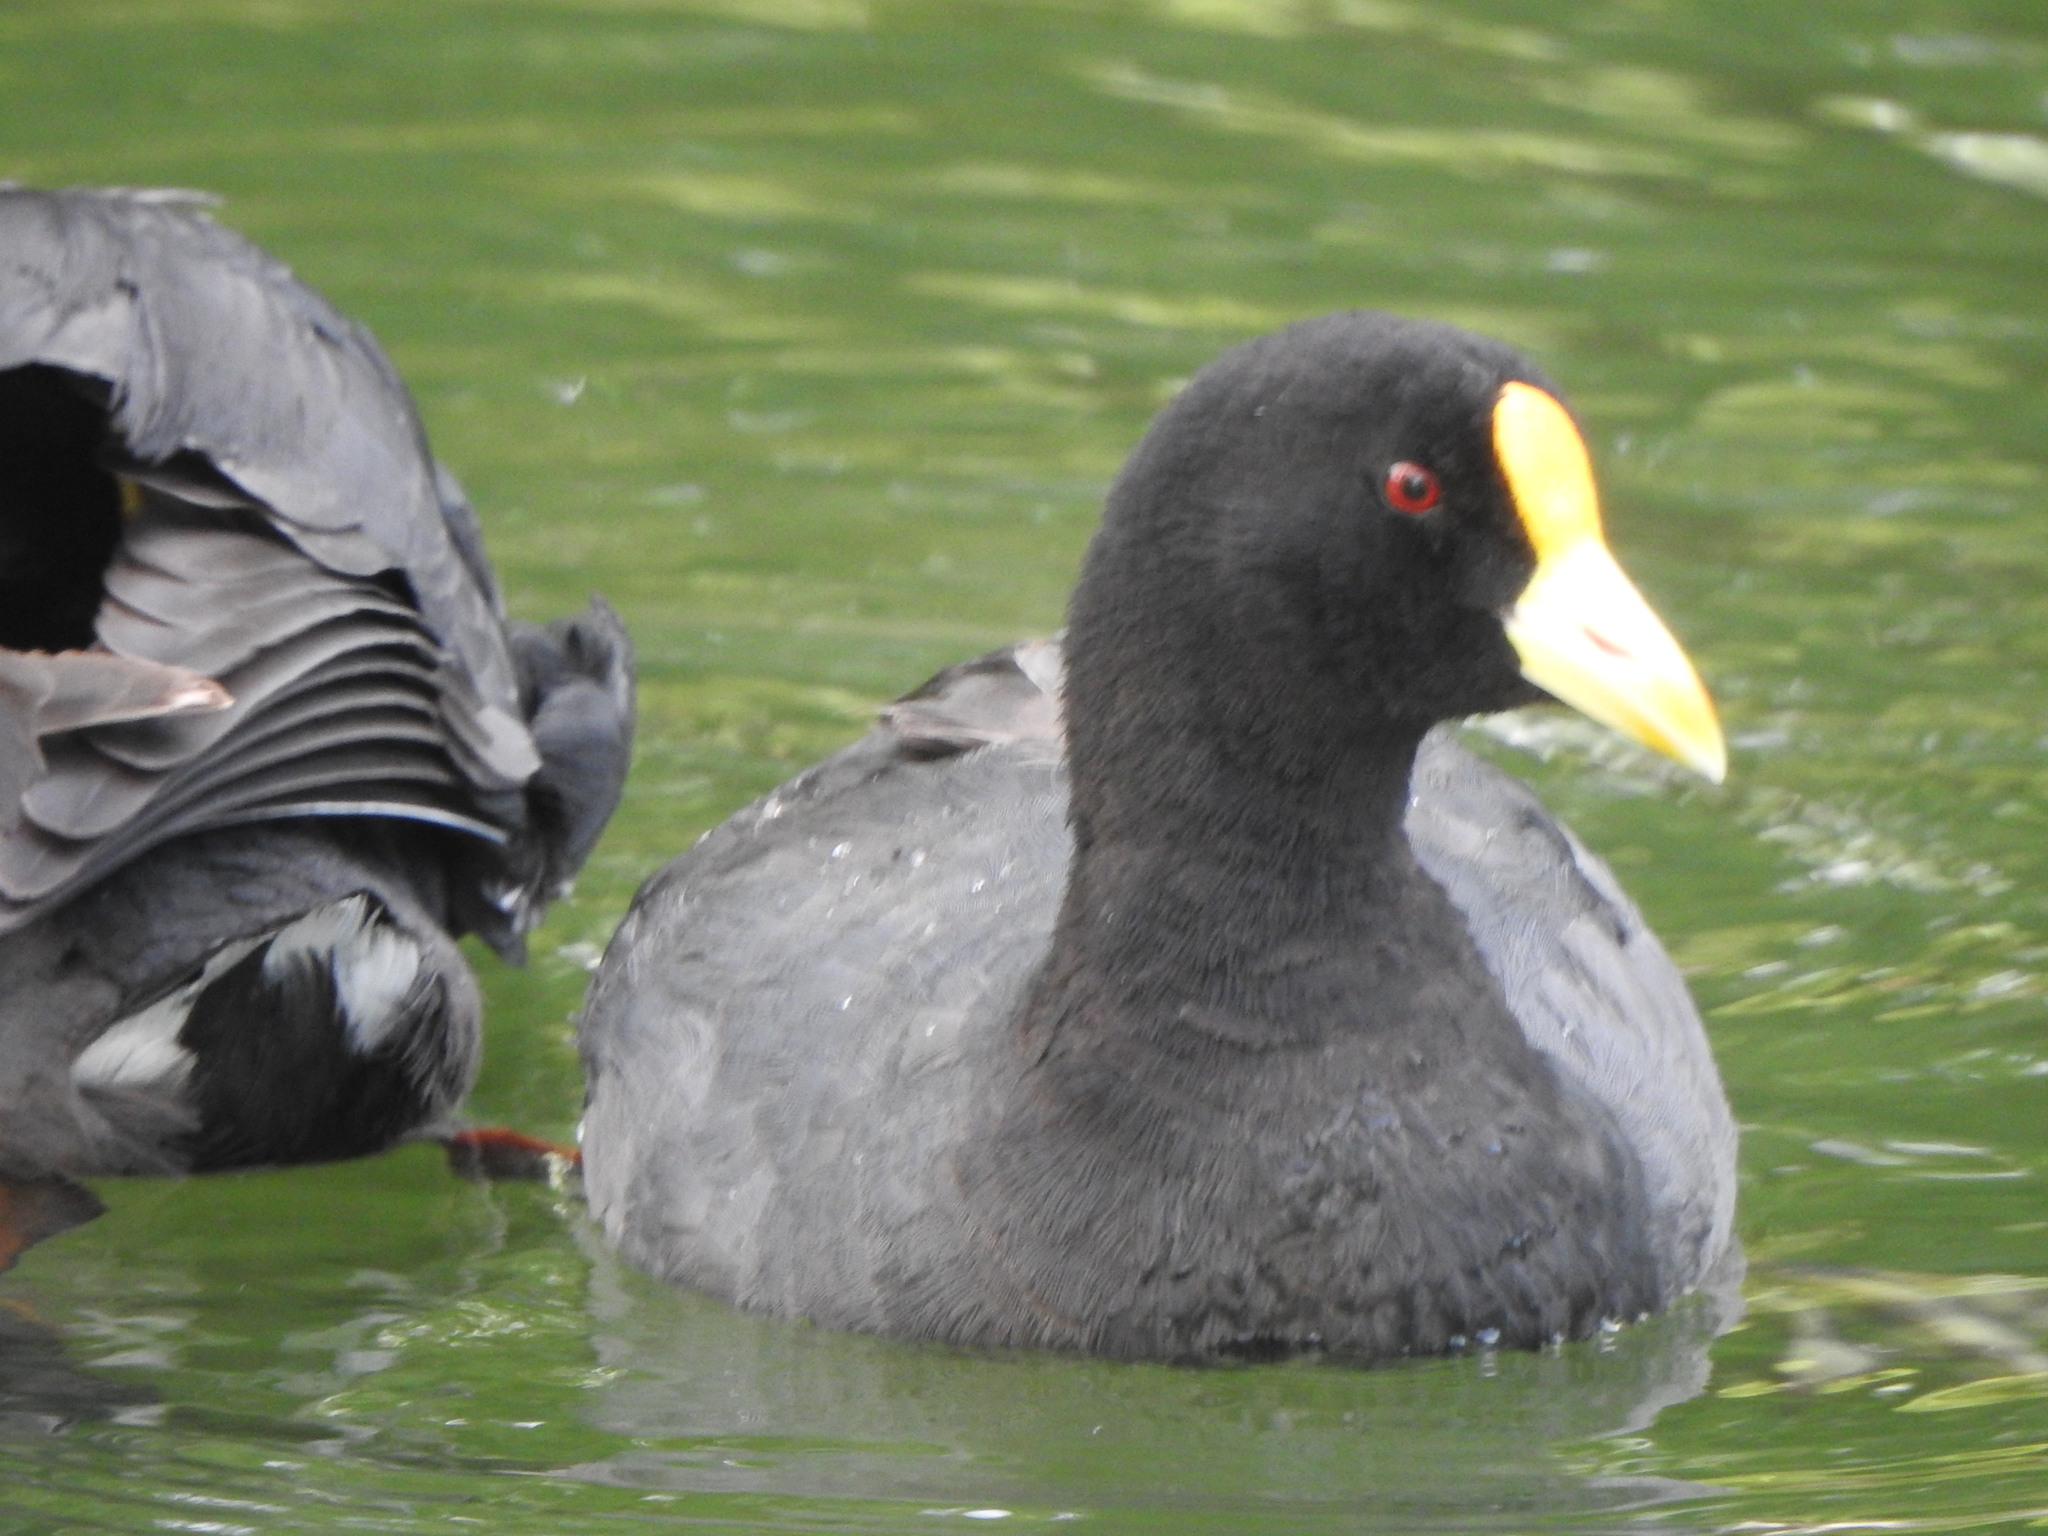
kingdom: Animalia
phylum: Chordata
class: Aves
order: Gruiformes
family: Rallidae
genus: Fulica
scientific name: Fulica leucoptera
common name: White-winged coot
